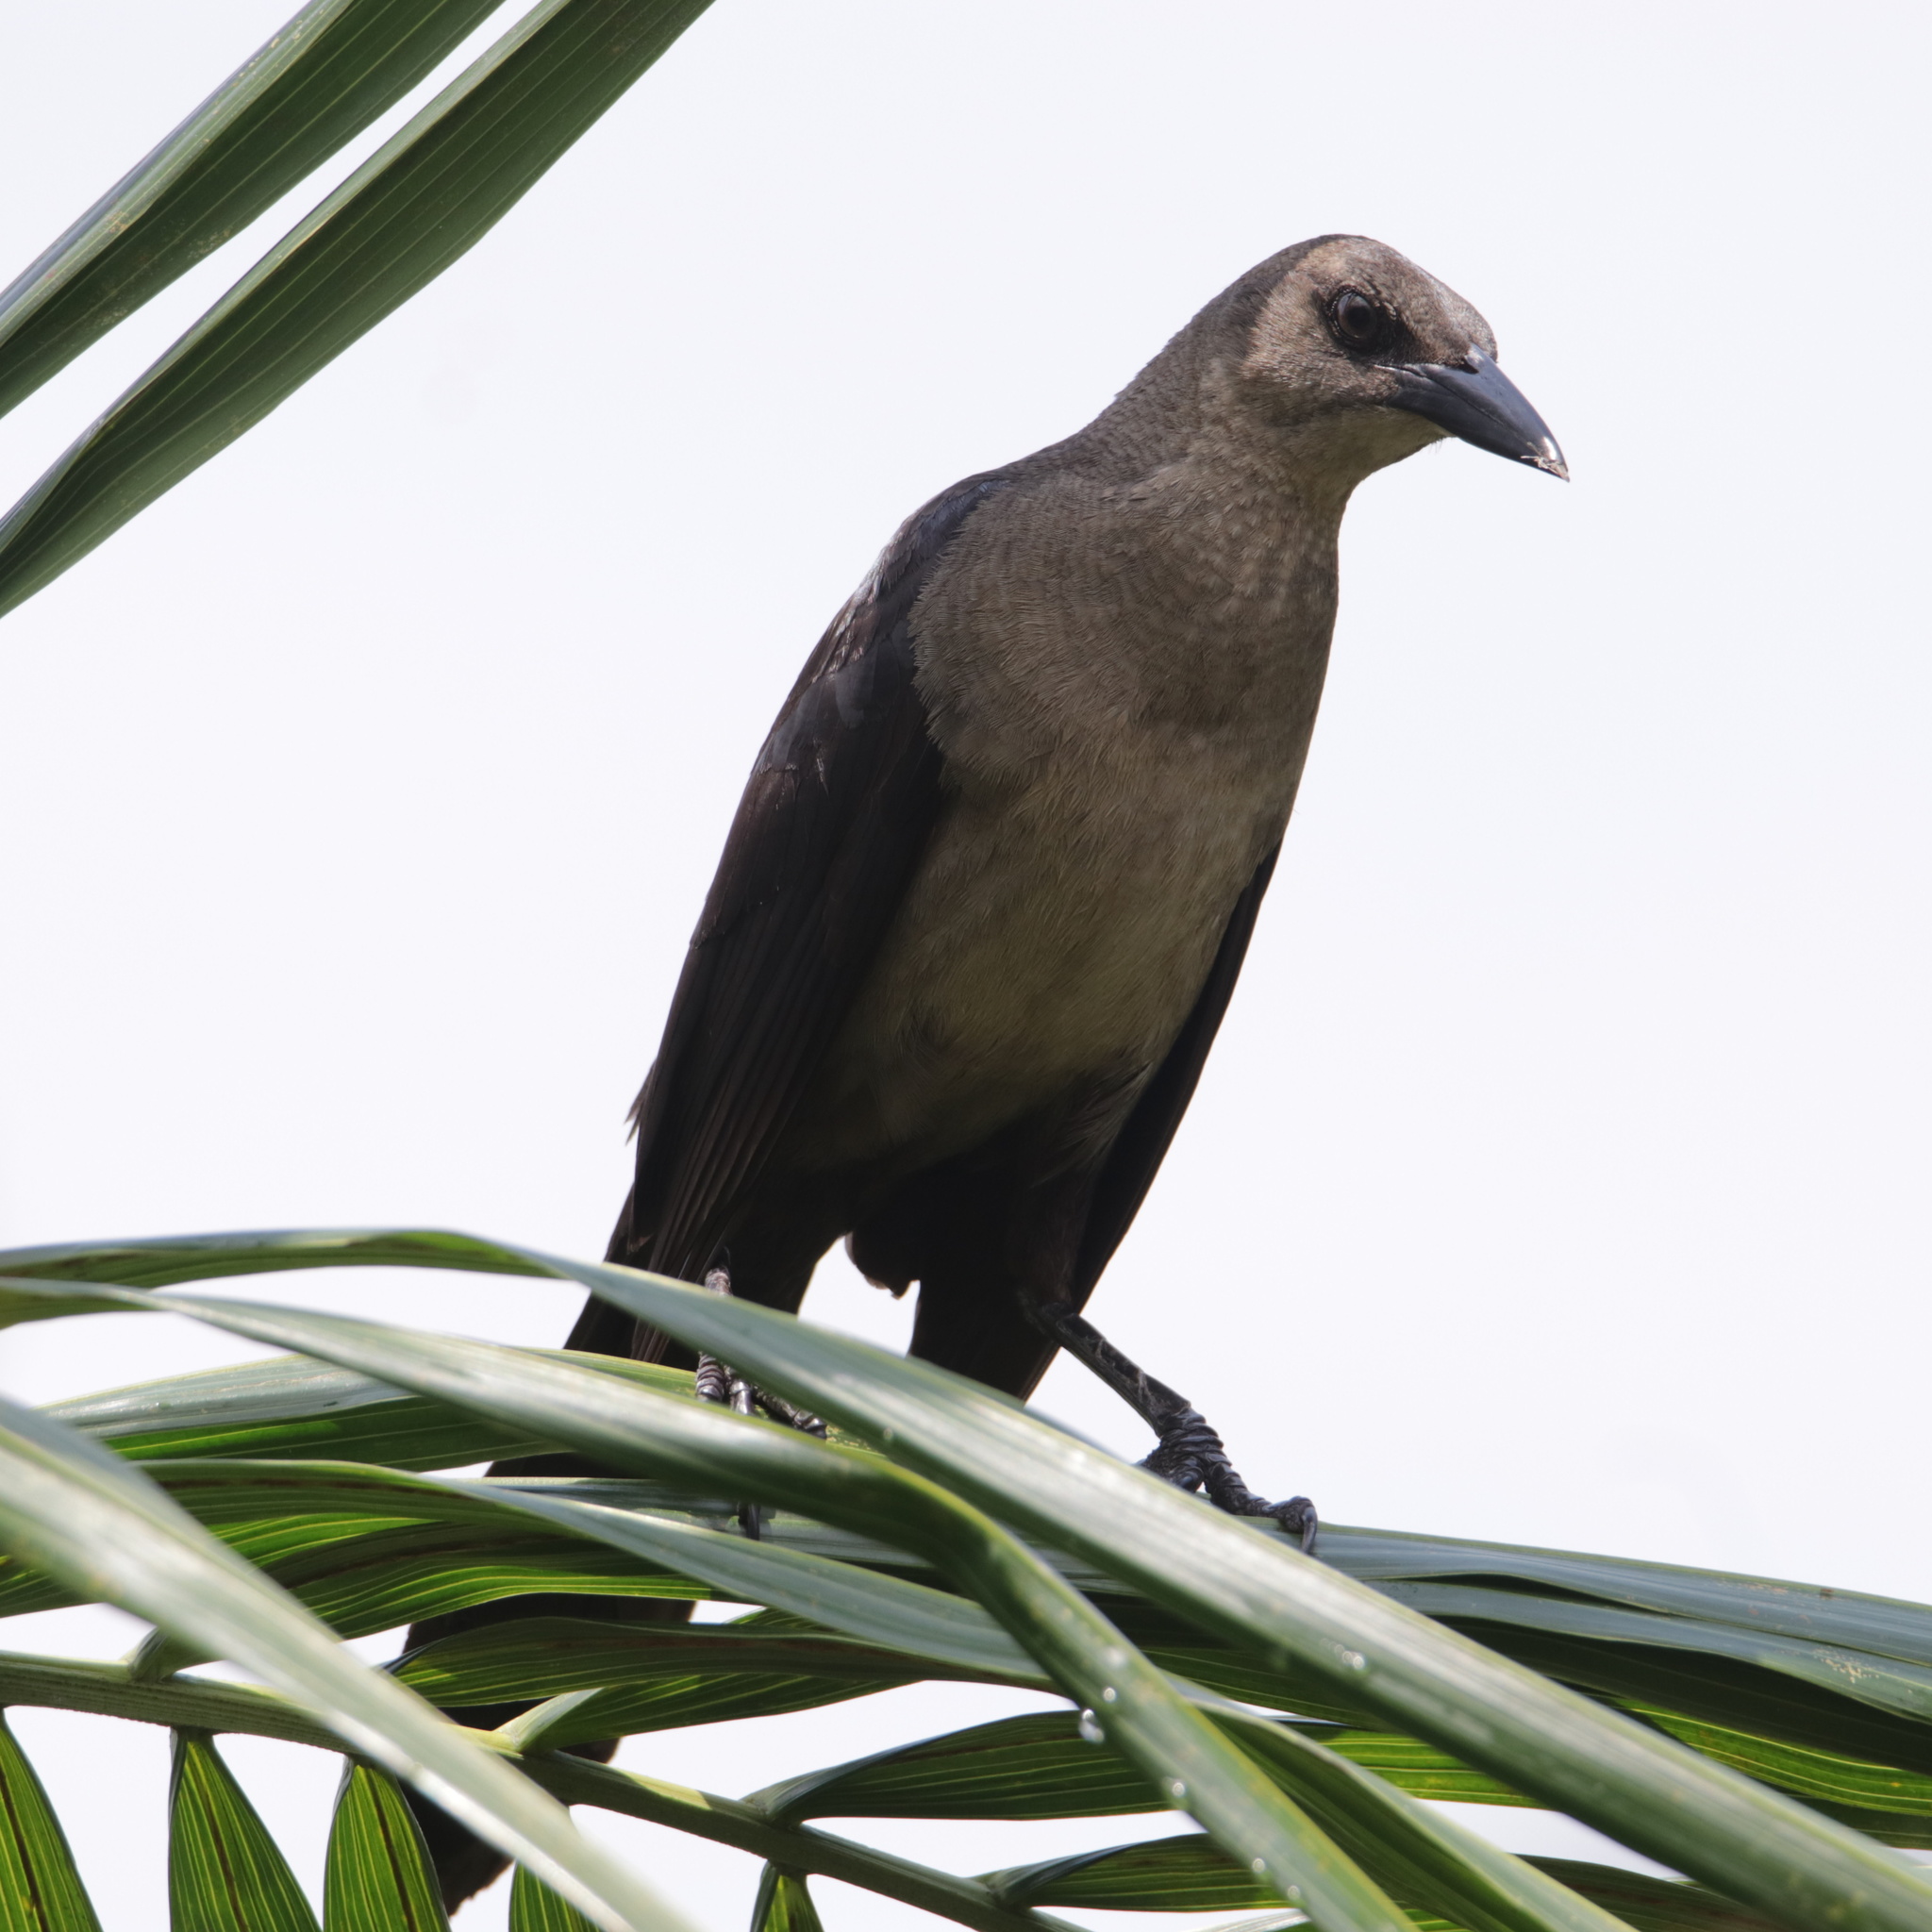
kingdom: Animalia
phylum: Chordata
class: Aves
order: Passeriformes
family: Icteridae
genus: Quiscalus
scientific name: Quiscalus mexicanus
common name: Great-tailed grackle
